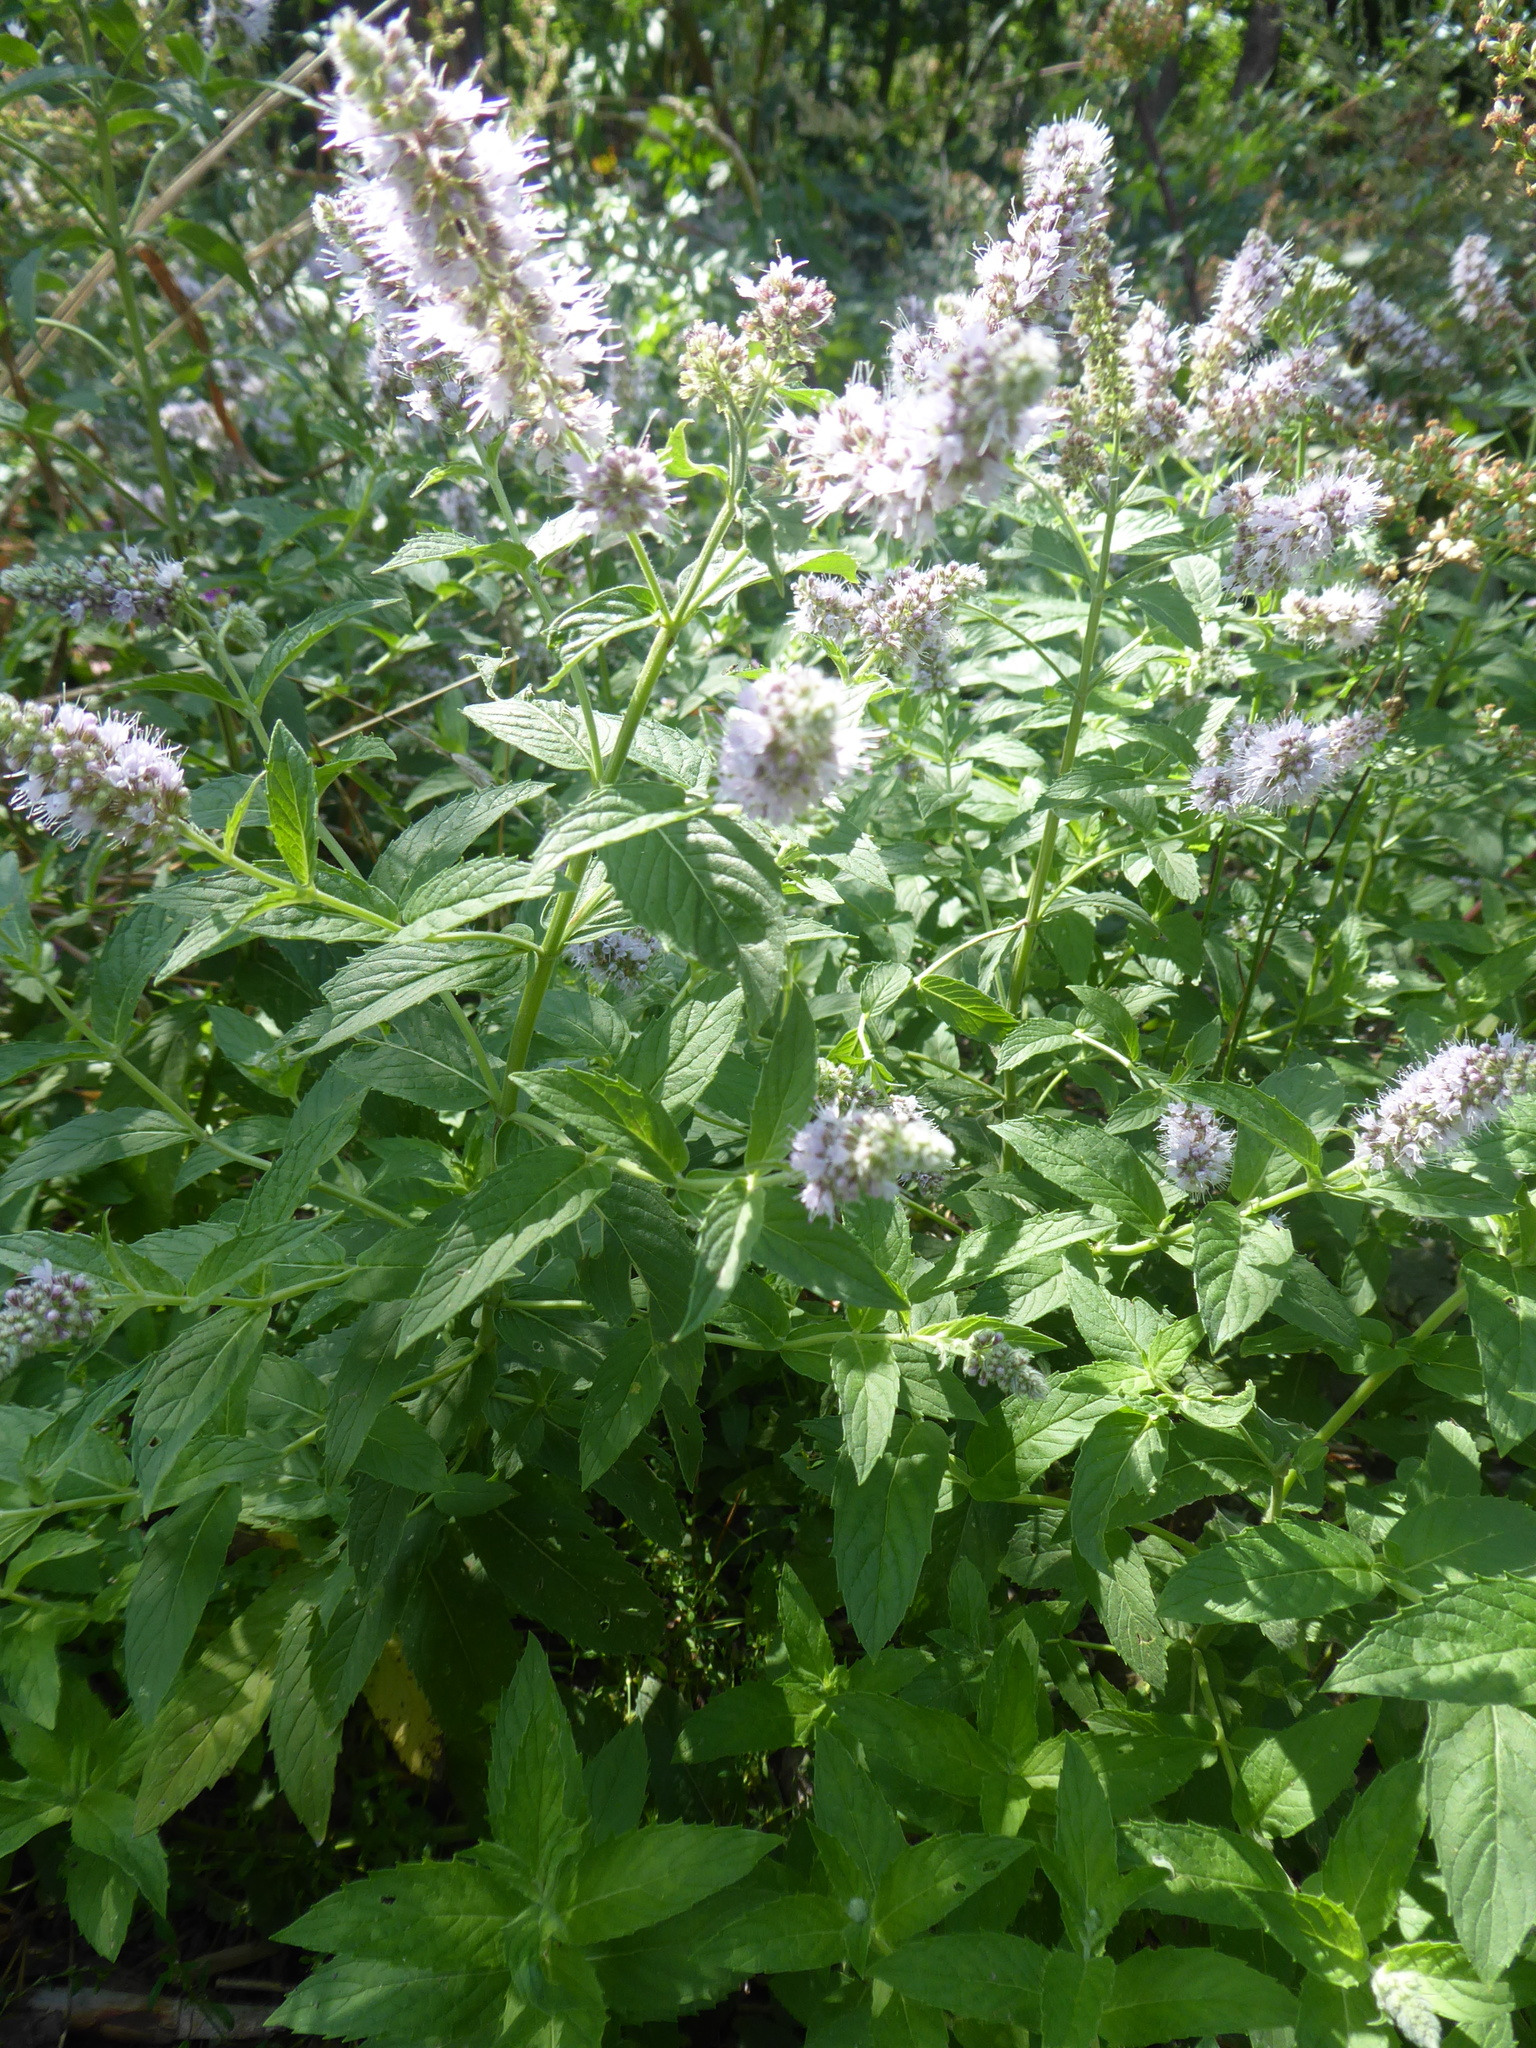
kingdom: Plantae
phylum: Tracheophyta
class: Magnoliopsida
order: Lamiales
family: Lamiaceae
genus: Mentha
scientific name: Mentha longifolia
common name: Horse mint
